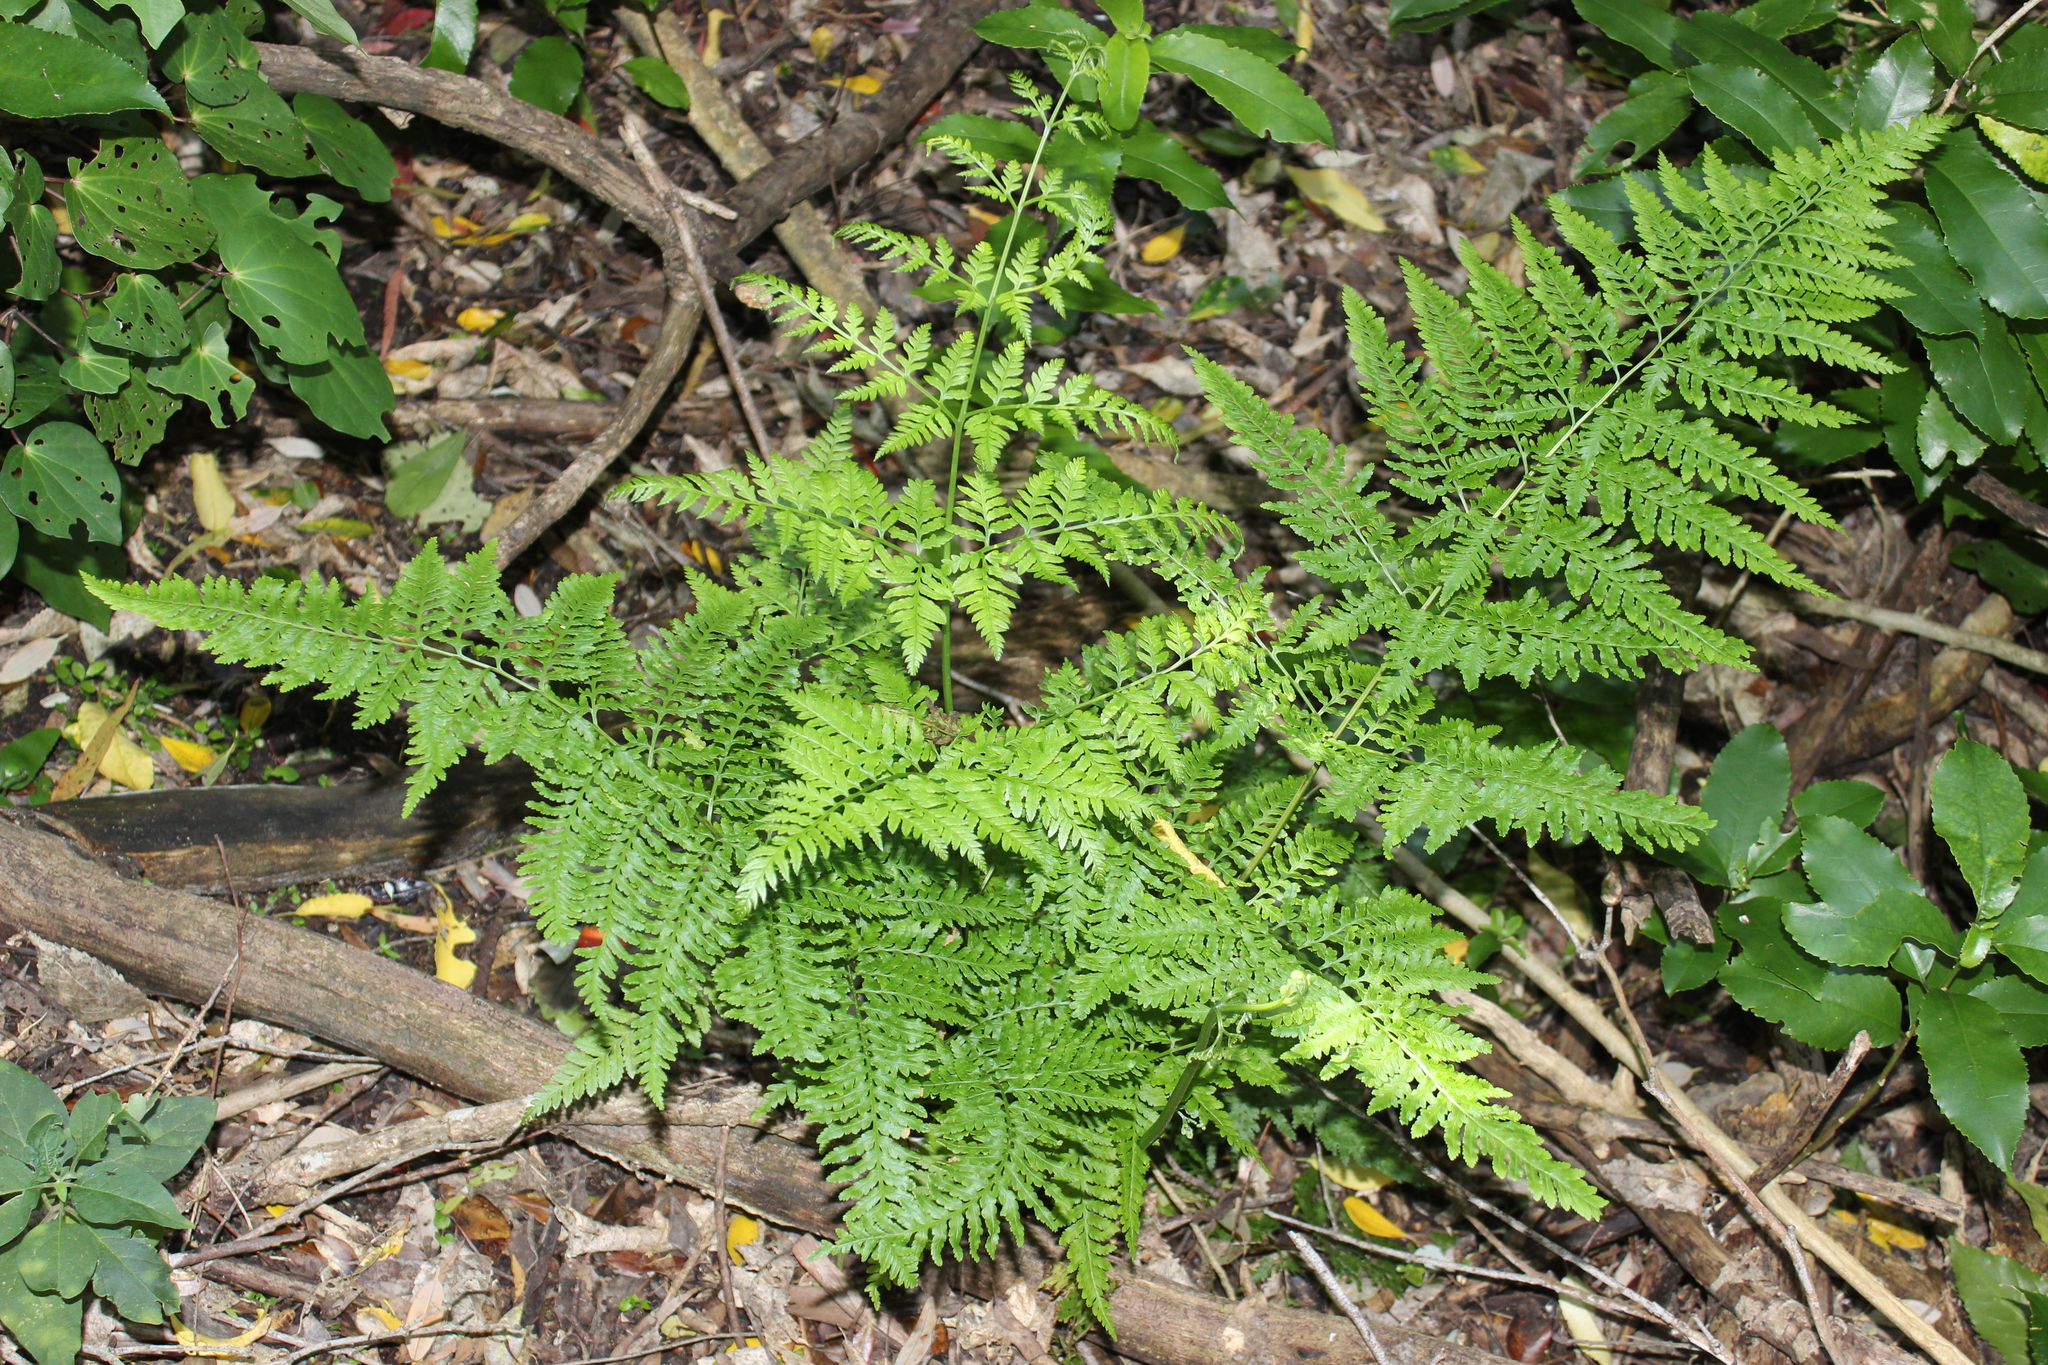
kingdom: Plantae
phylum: Tracheophyta
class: Polypodiopsida
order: Polypodiales
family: Pteridaceae
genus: Pteris
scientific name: Pteris tremula
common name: Australian brake
